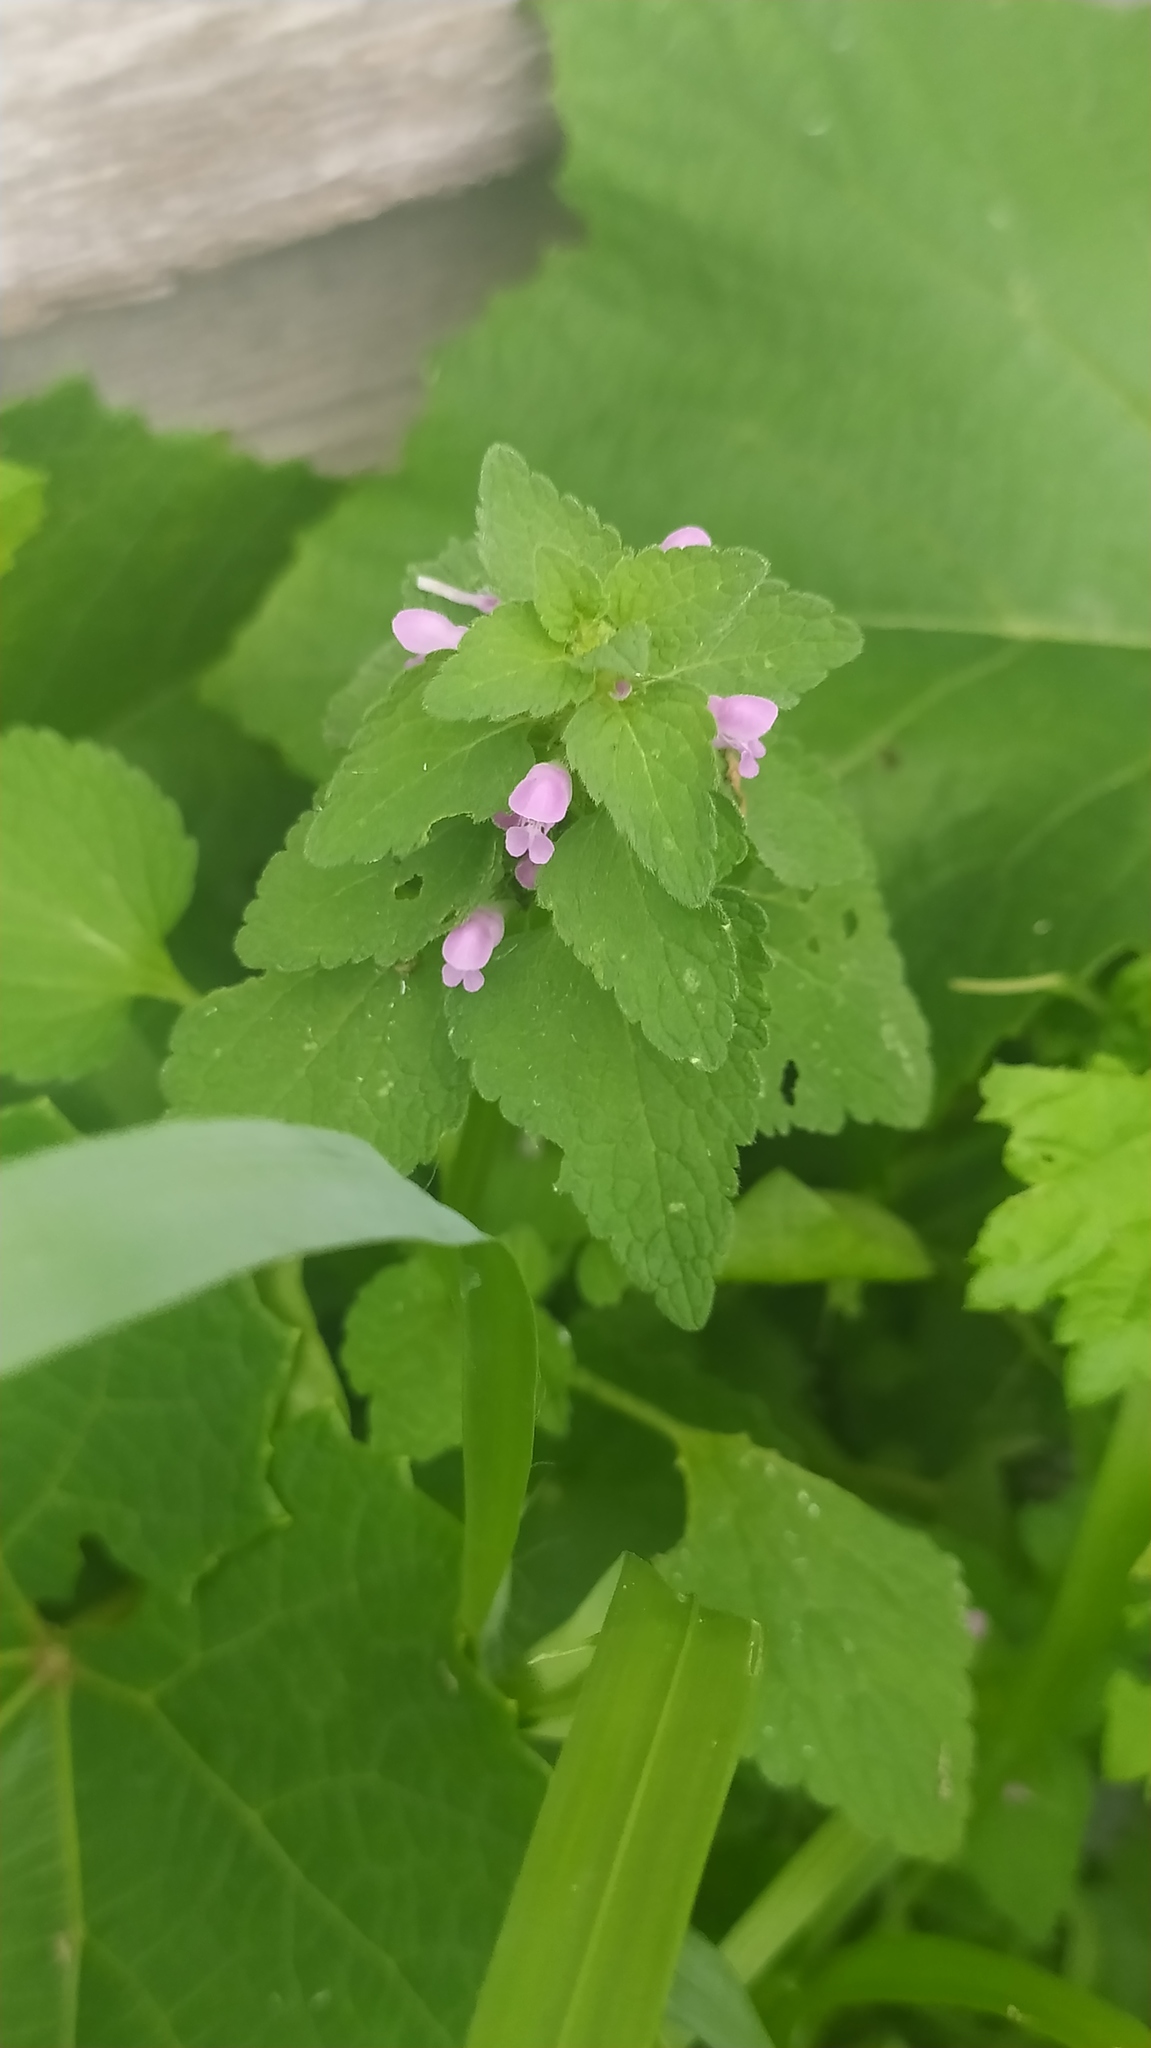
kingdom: Plantae
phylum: Tracheophyta
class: Magnoliopsida
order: Lamiales
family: Lamiaceae
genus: Lamium
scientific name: Lamium purpureum
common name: Red dead-nettle
